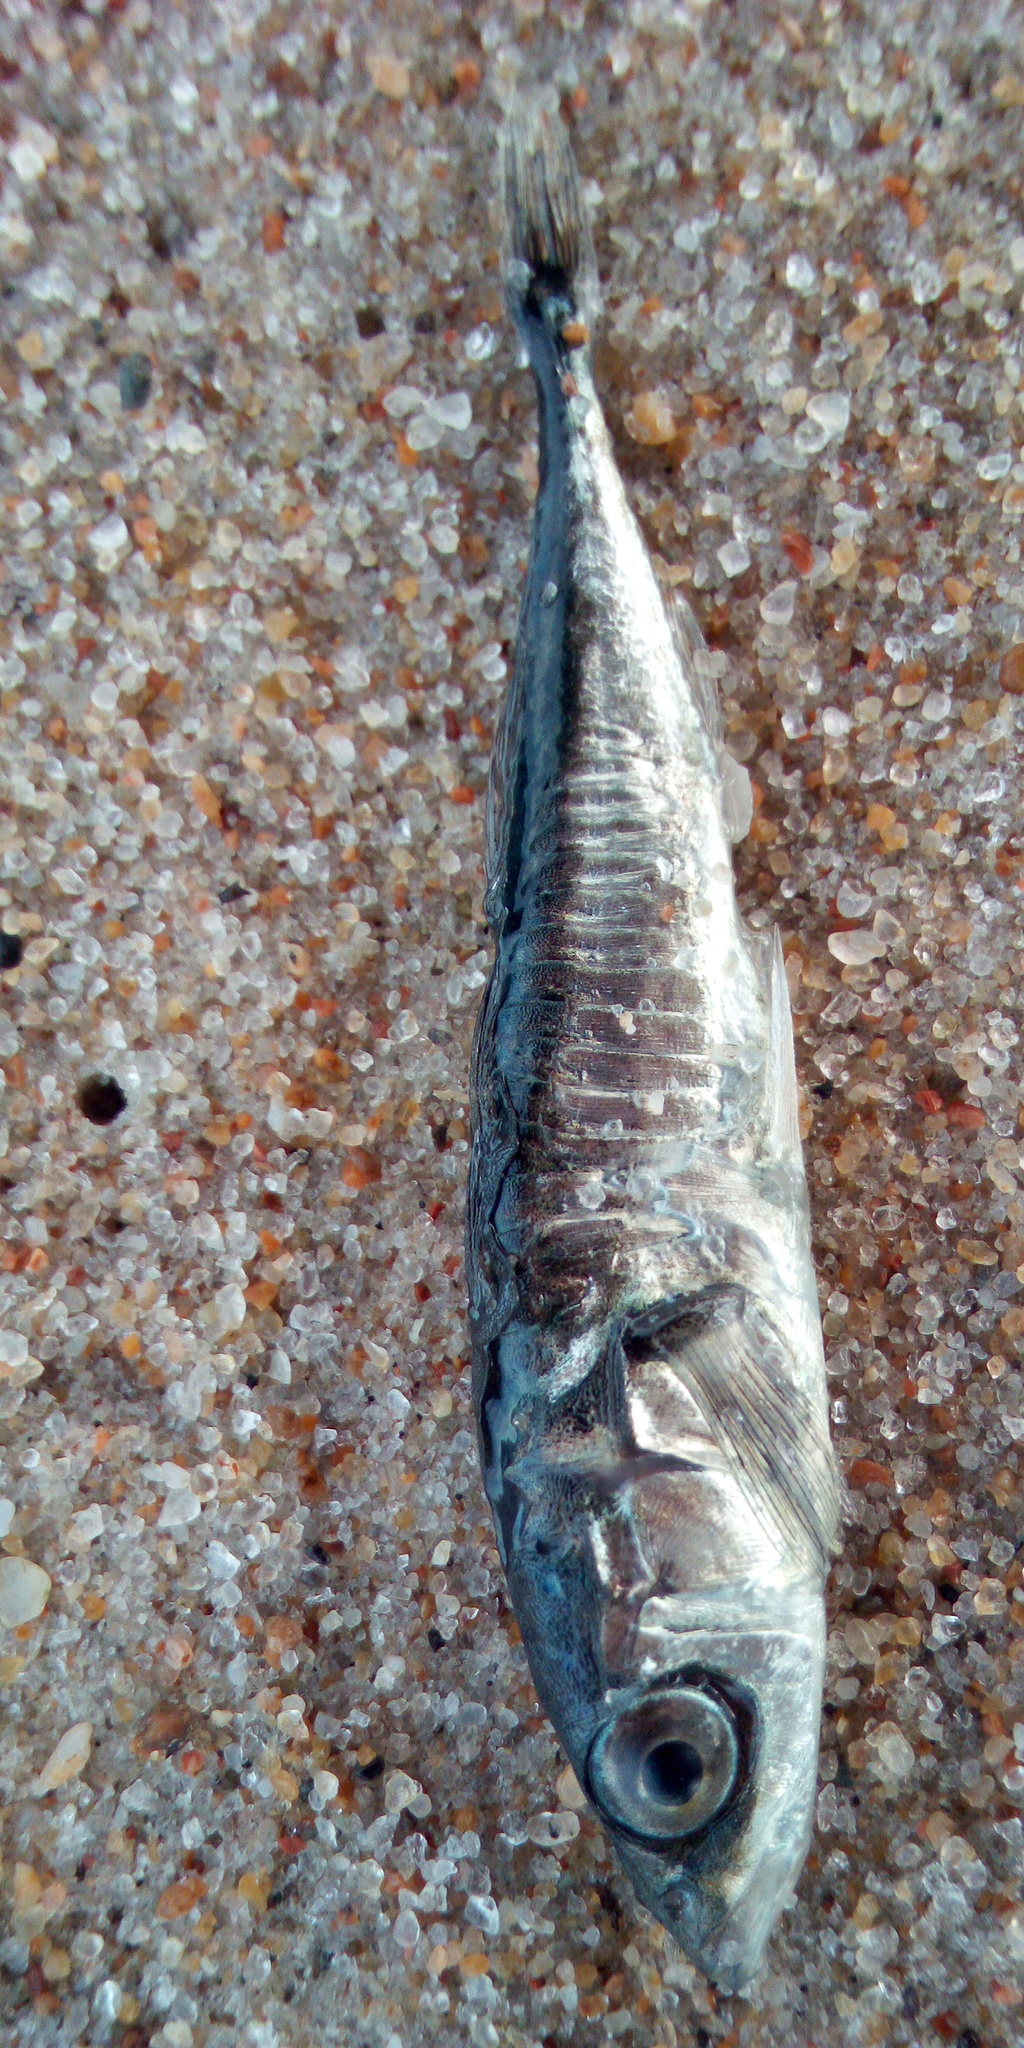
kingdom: Animalia
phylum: Chordata
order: Gasterosteiformes
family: Gasterosteidae
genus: Gasterosteus
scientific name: Gasterosteus aculeatus
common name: Three-spined stickleback
